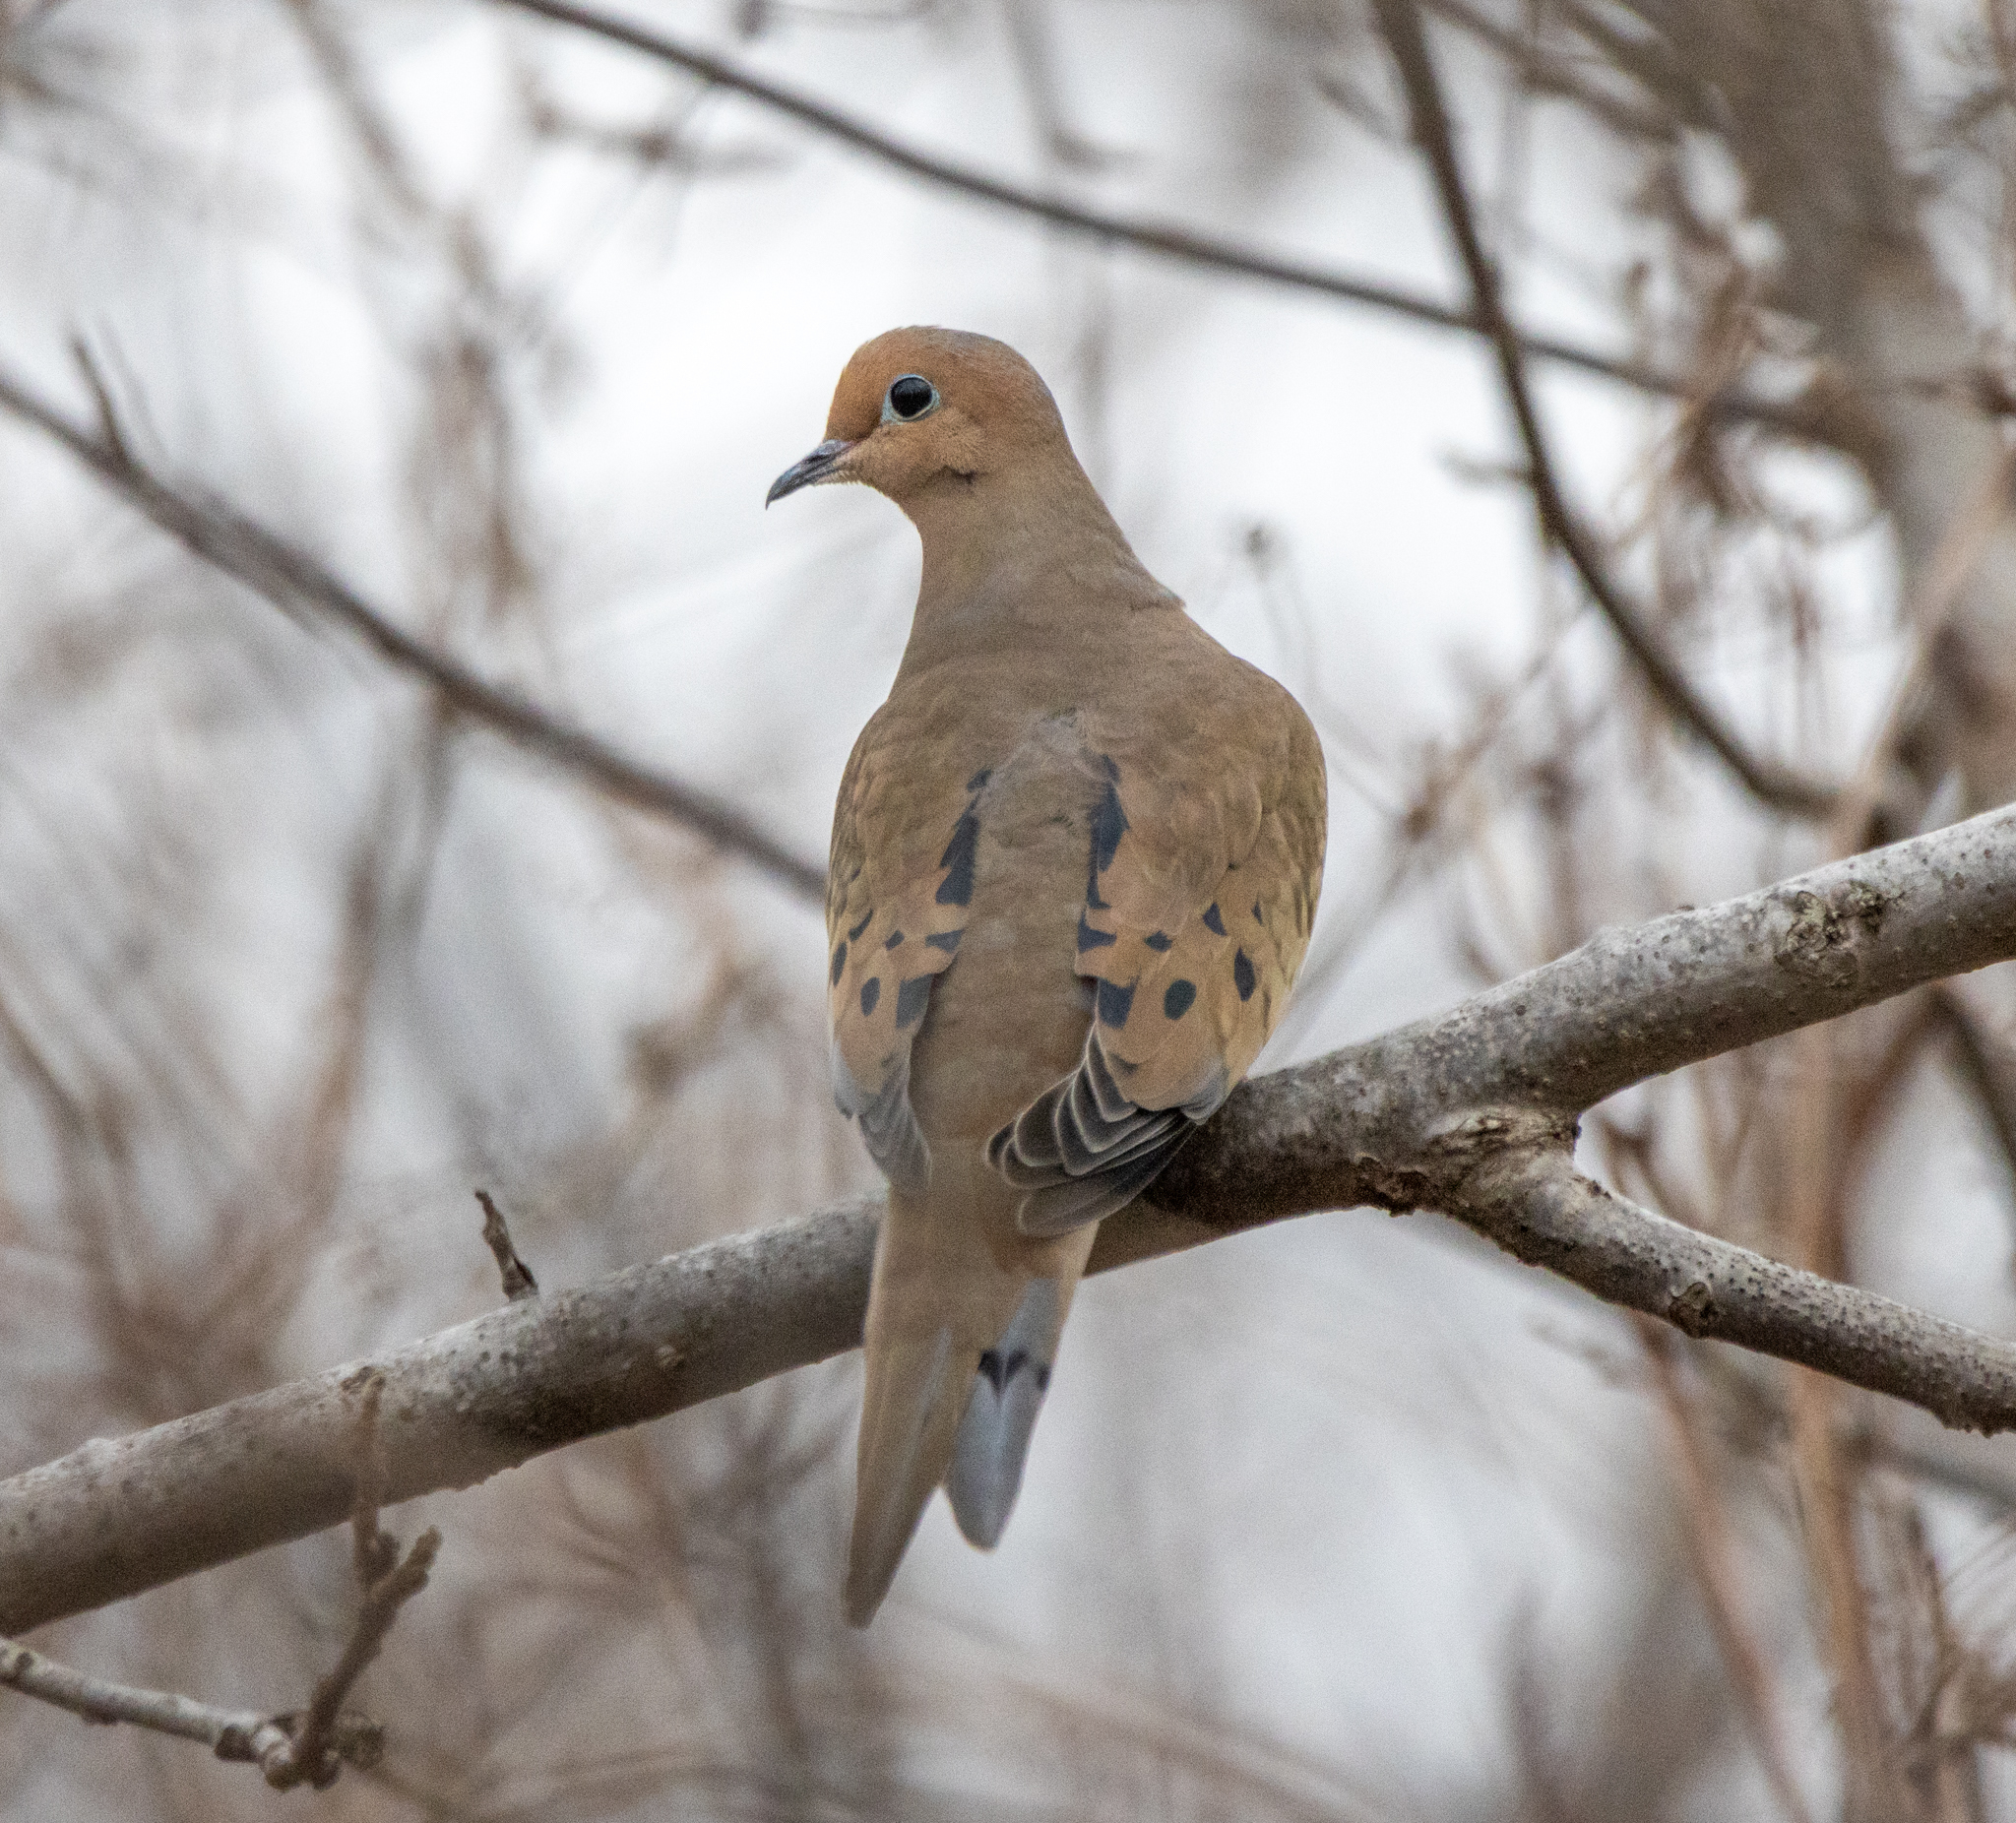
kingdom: Animalia
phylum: Chordata
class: Aves
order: Columbiformes
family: Columbidae
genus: Zenaida
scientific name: Zenaida macroura
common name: Mourning dove
